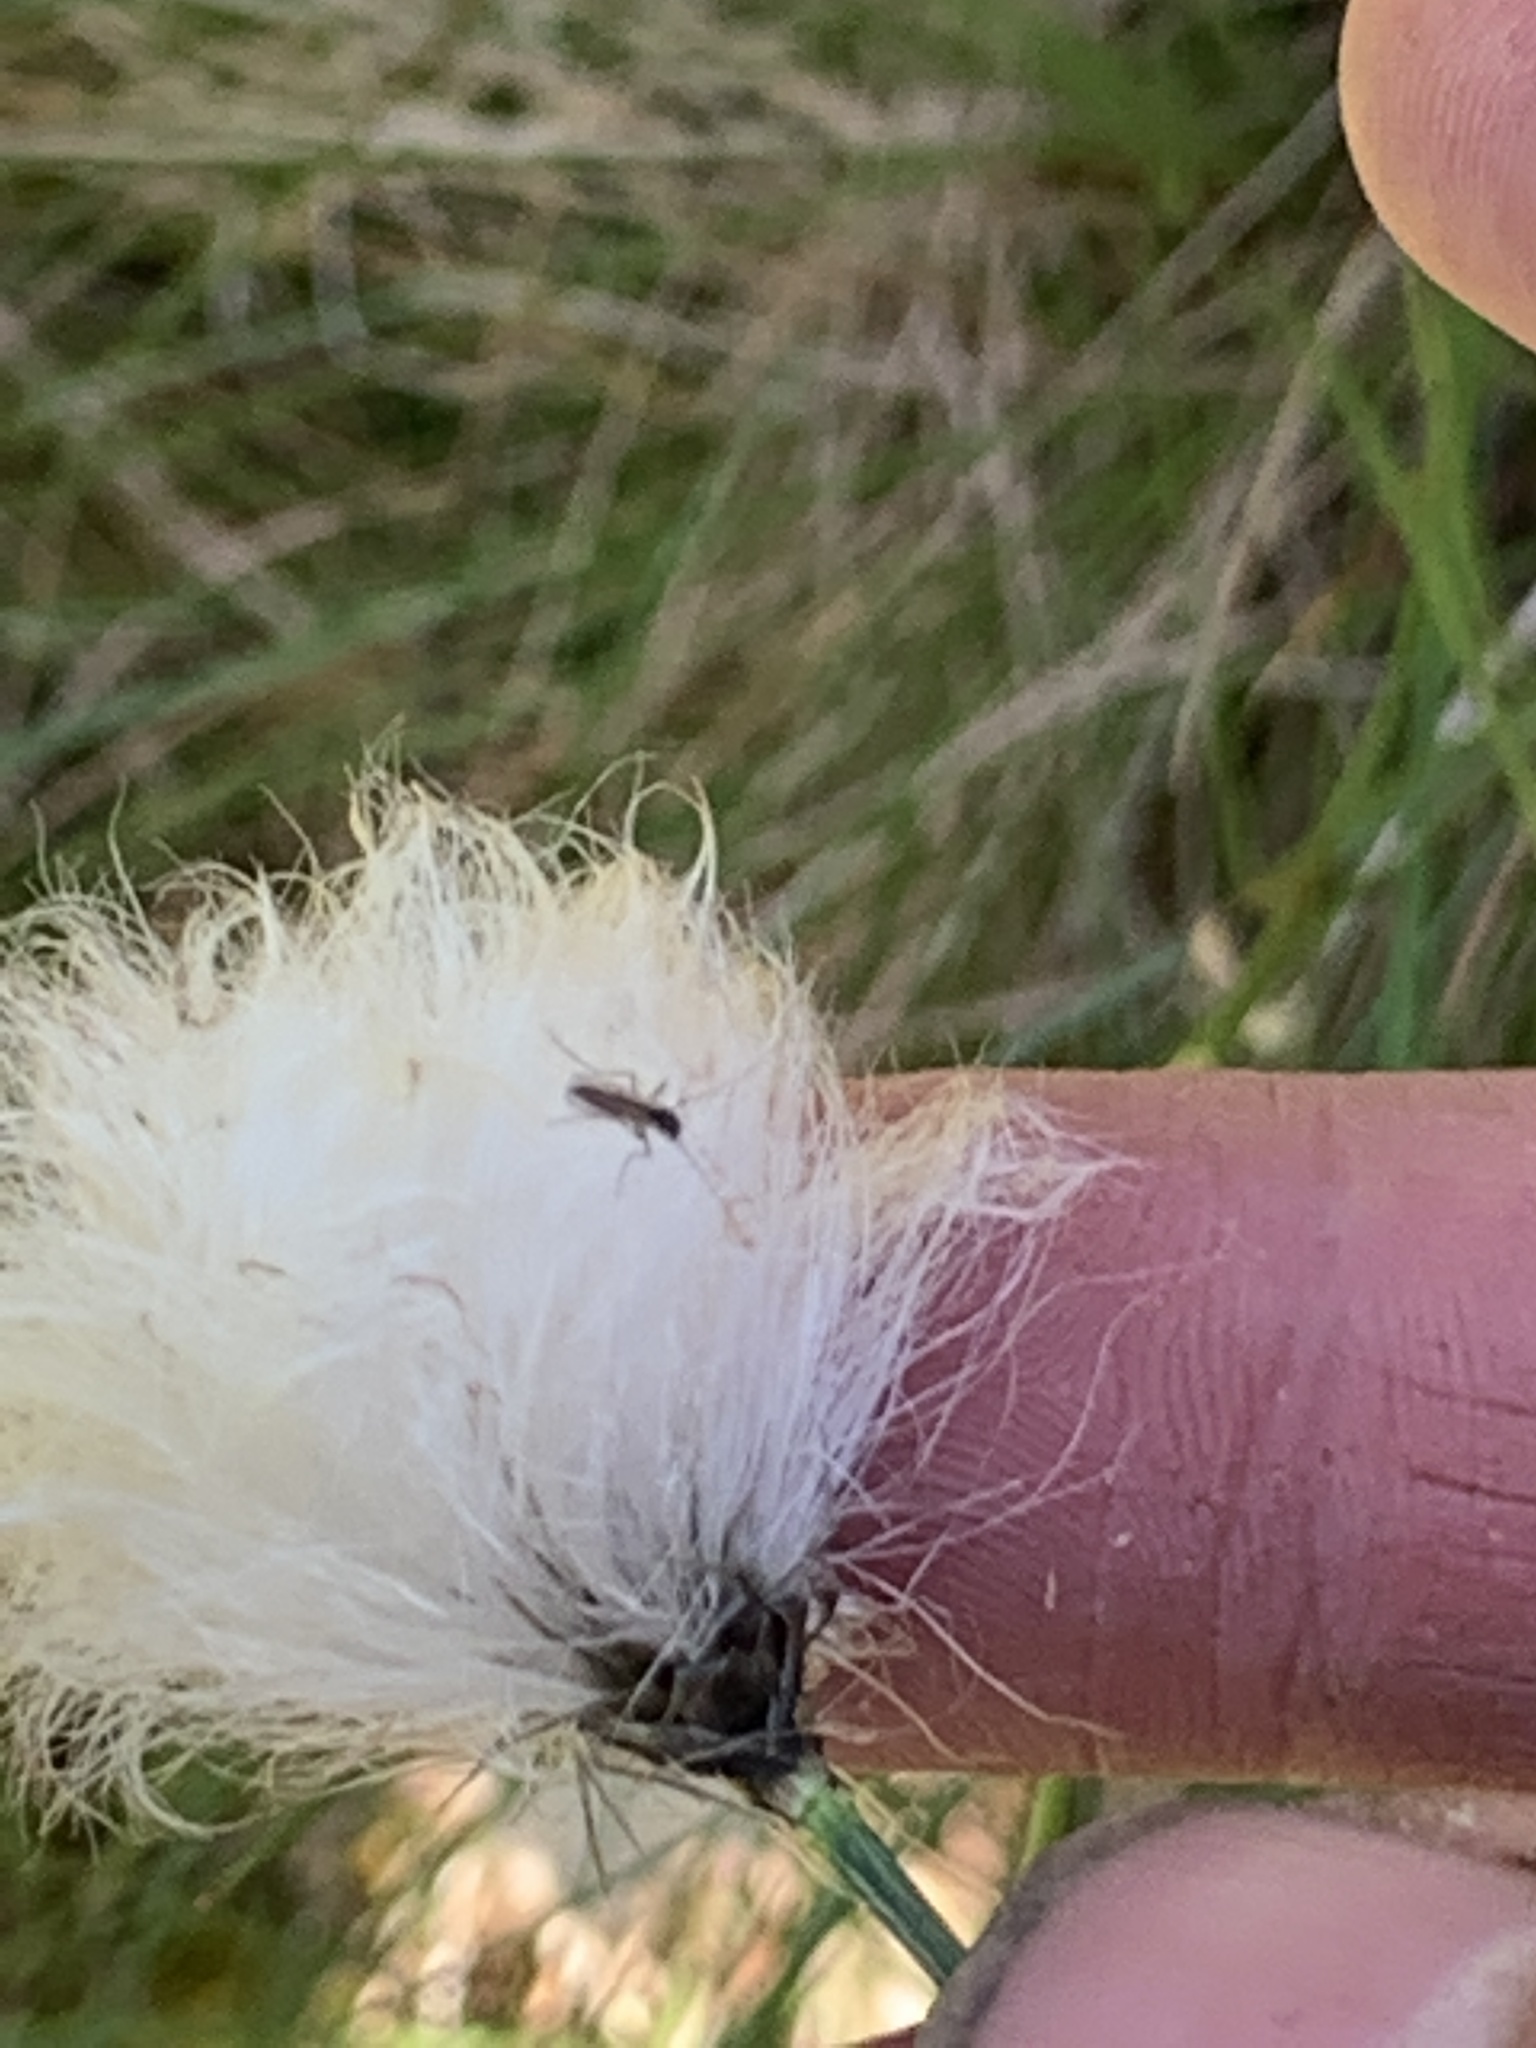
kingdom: Plantae
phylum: Tracheophyta
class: Liliopsida
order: Poales
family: Cyperaceae
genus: Eriophorum
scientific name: Eriophorum vaginatum
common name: Hare's-tail cottongrass
